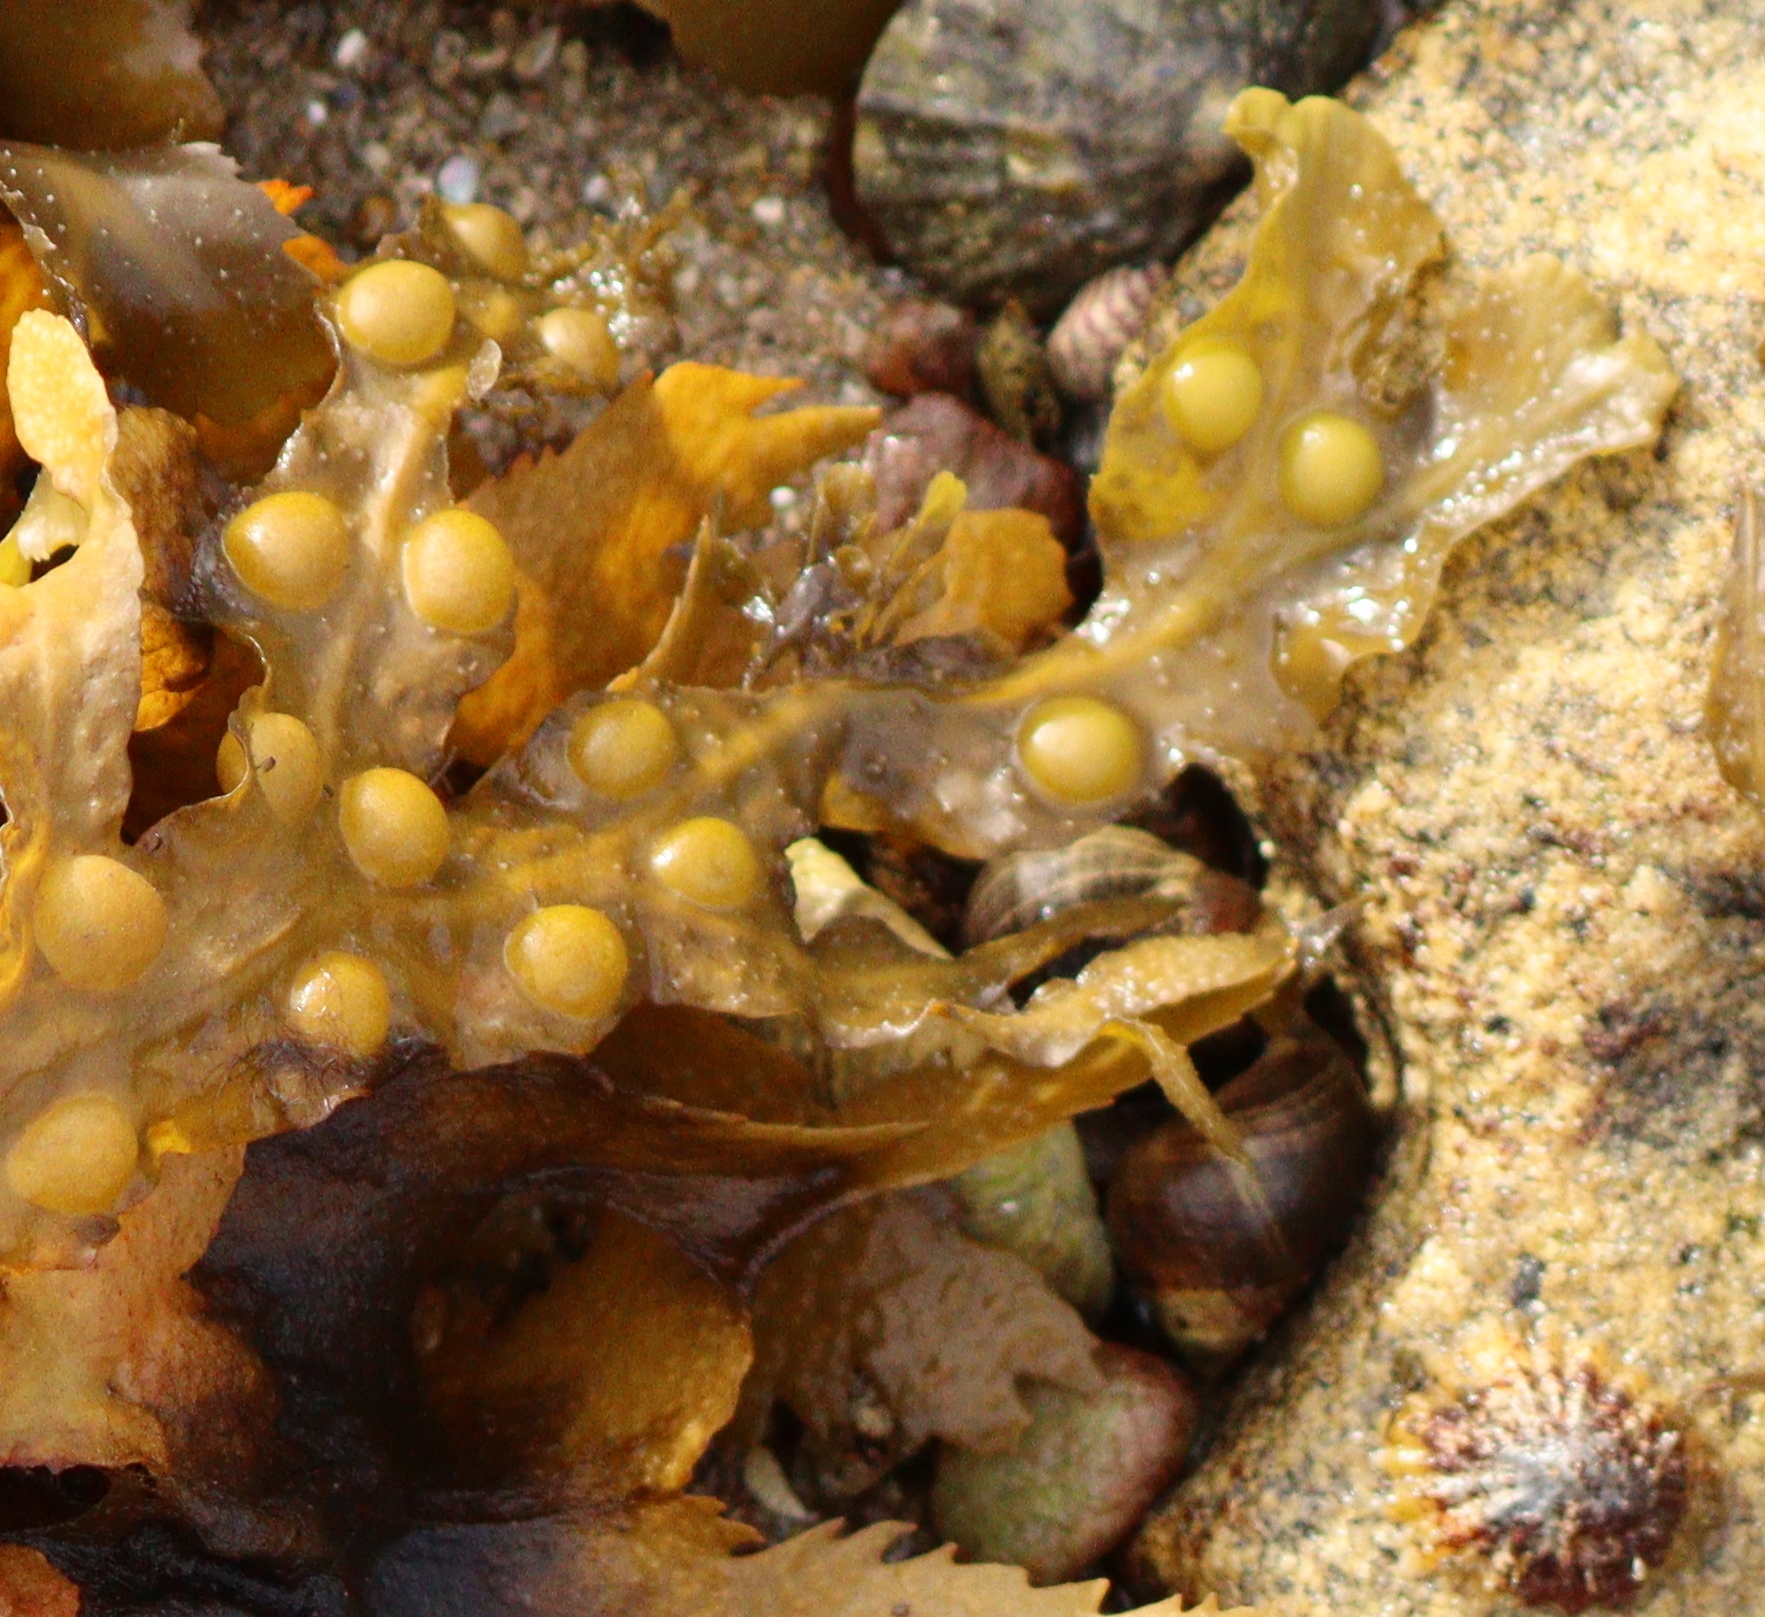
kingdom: Chromista
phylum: Ochrophyta
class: Phaeophyceae
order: Fucales
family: Fucaceae
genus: Fucus
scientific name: Fucus vesiculosus
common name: Bladder wrack
